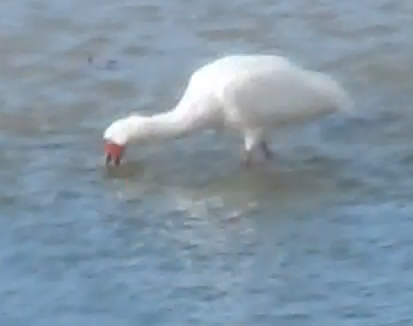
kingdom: Animalia
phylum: Chordata
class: Aves
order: Pelecaniformes
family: Threskiornithidae
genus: Platalea
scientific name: Platalea alba
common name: African spoonbill
